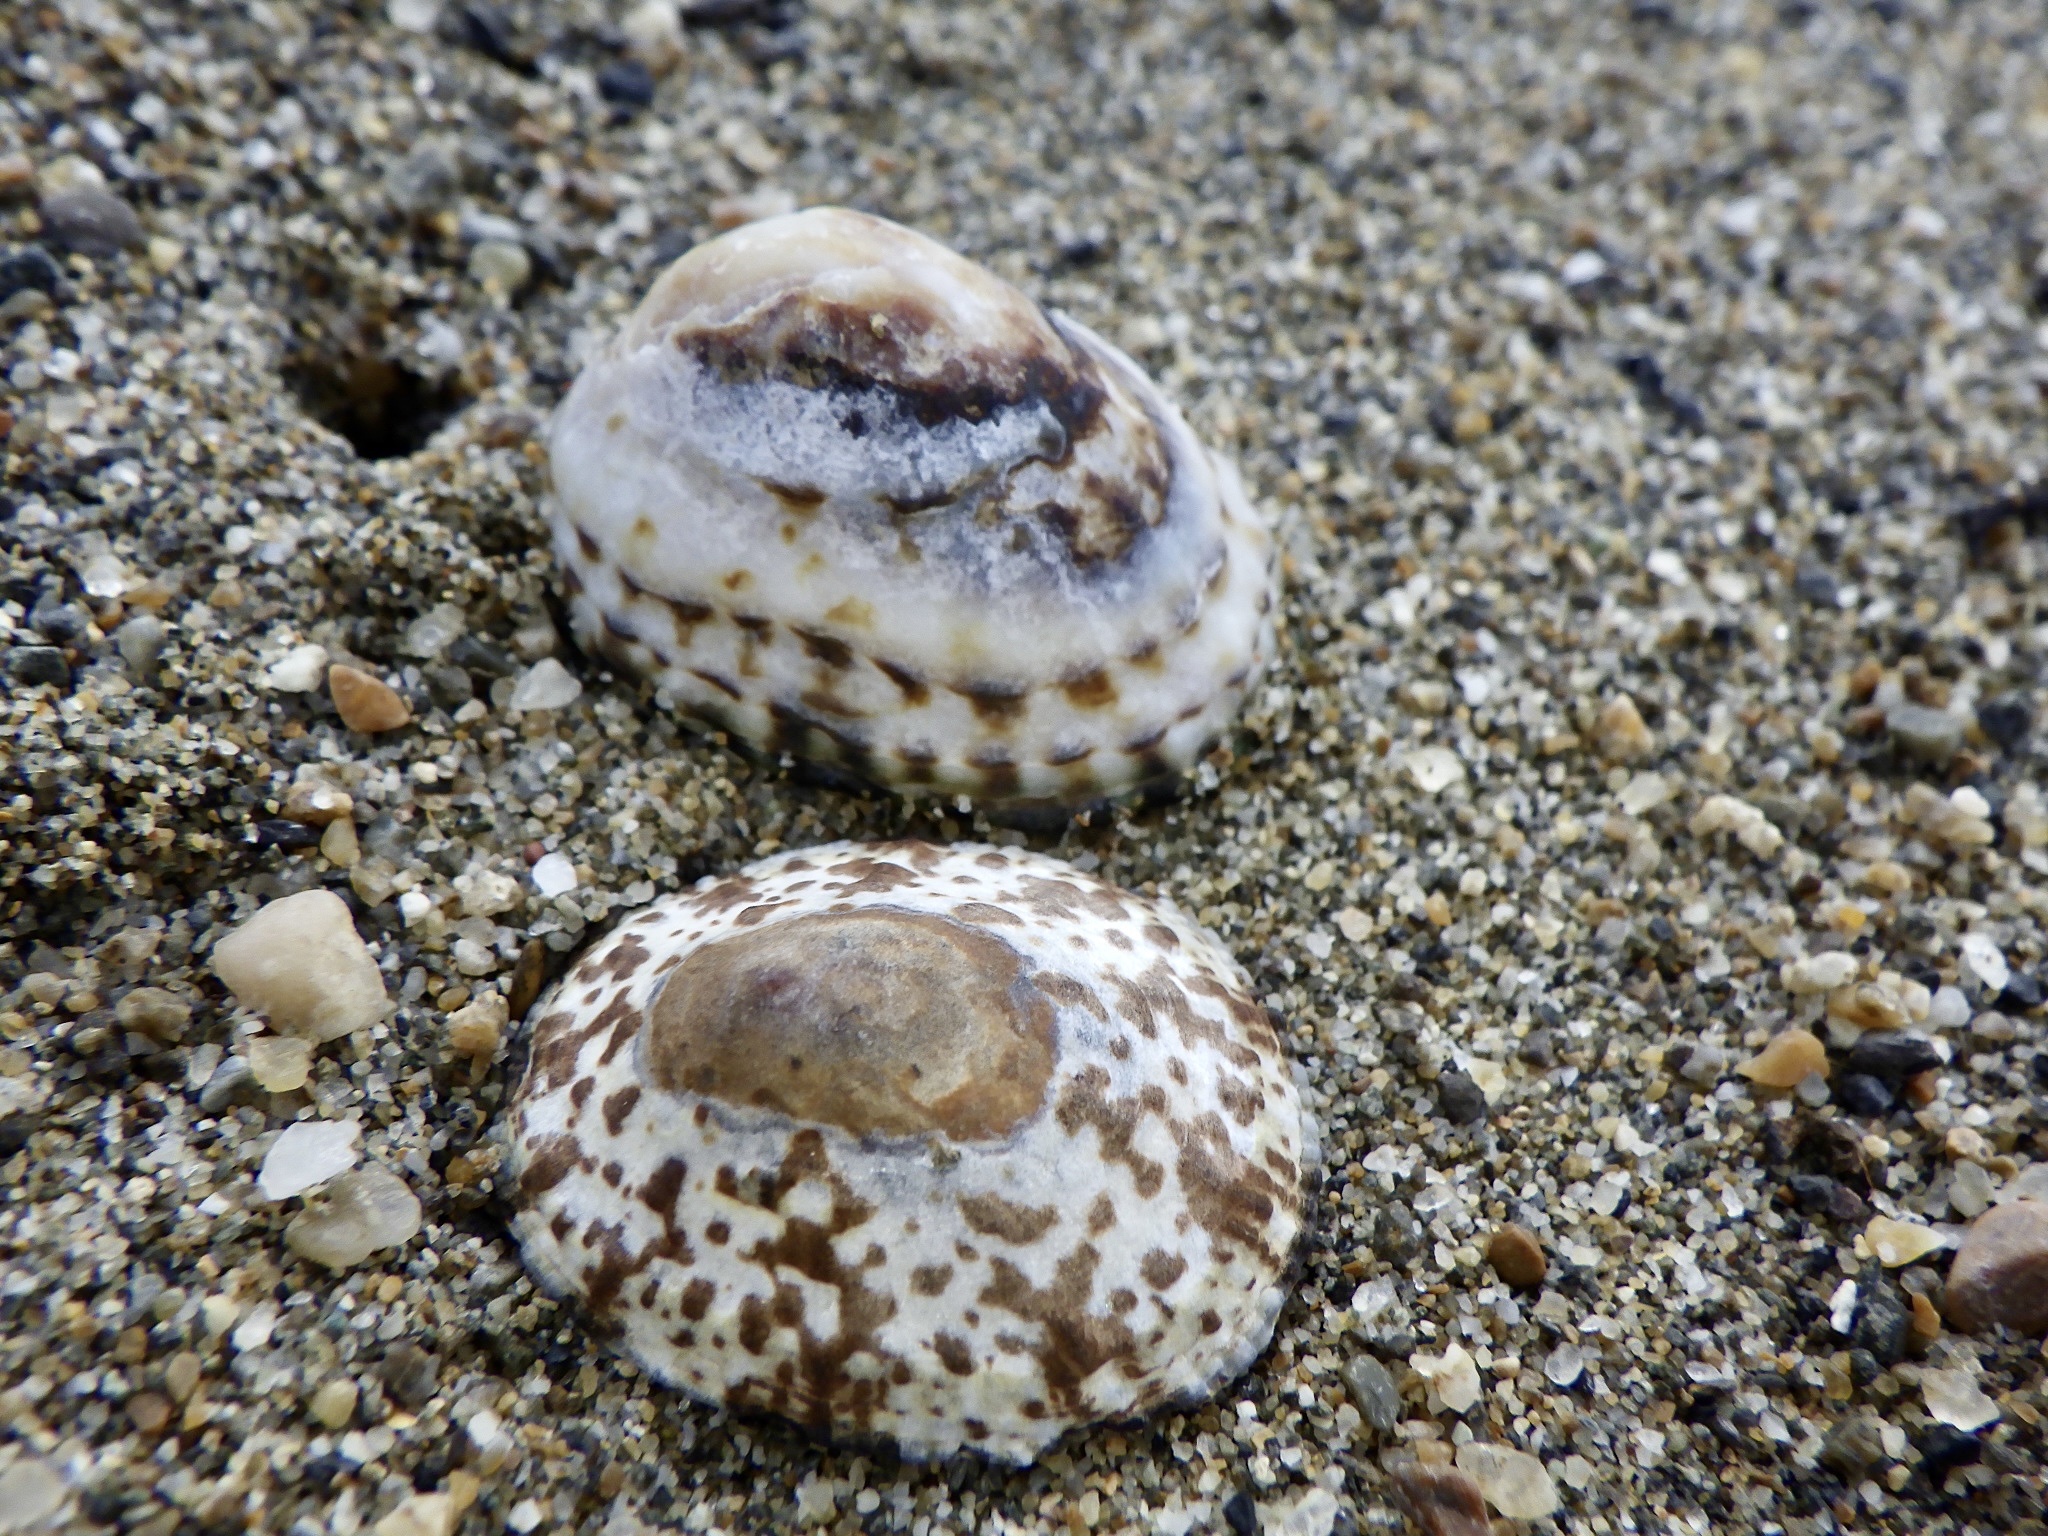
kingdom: Animalia
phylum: Mollusca
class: Gastropoda
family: Nacellidae
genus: Cellana
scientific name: Cellana grata
